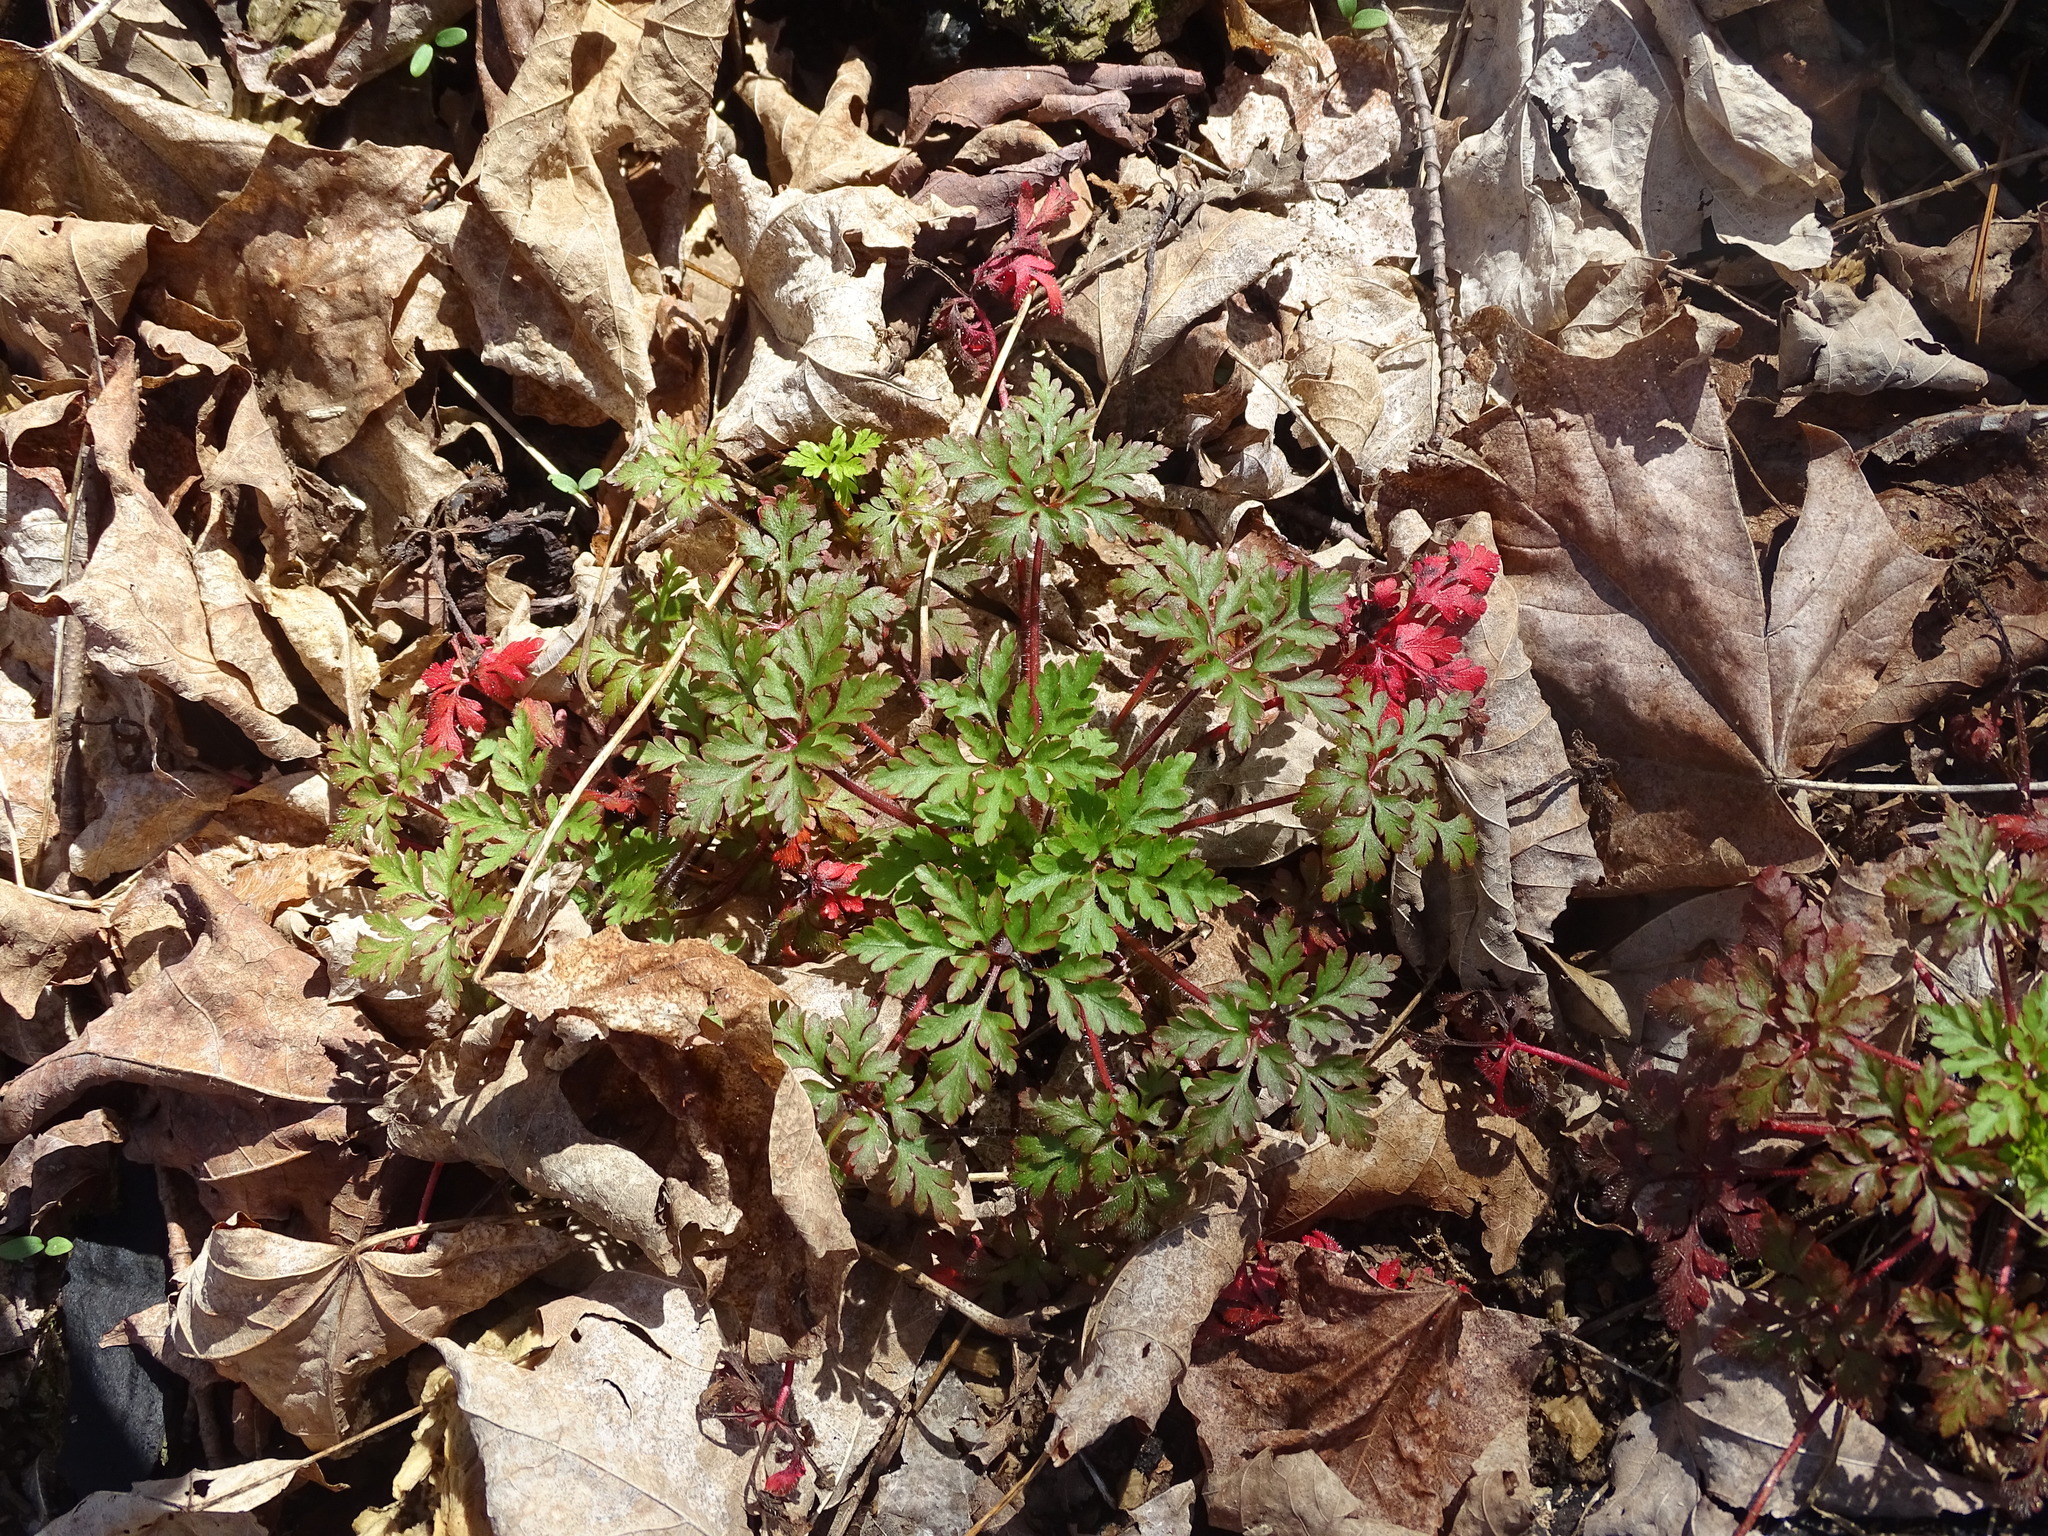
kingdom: Plantae
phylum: Tracheophyta
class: Magnoliopsida
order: Geraniales
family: Geraniaceae
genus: Geranium
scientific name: Geranium robertianum
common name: Herb-robert
